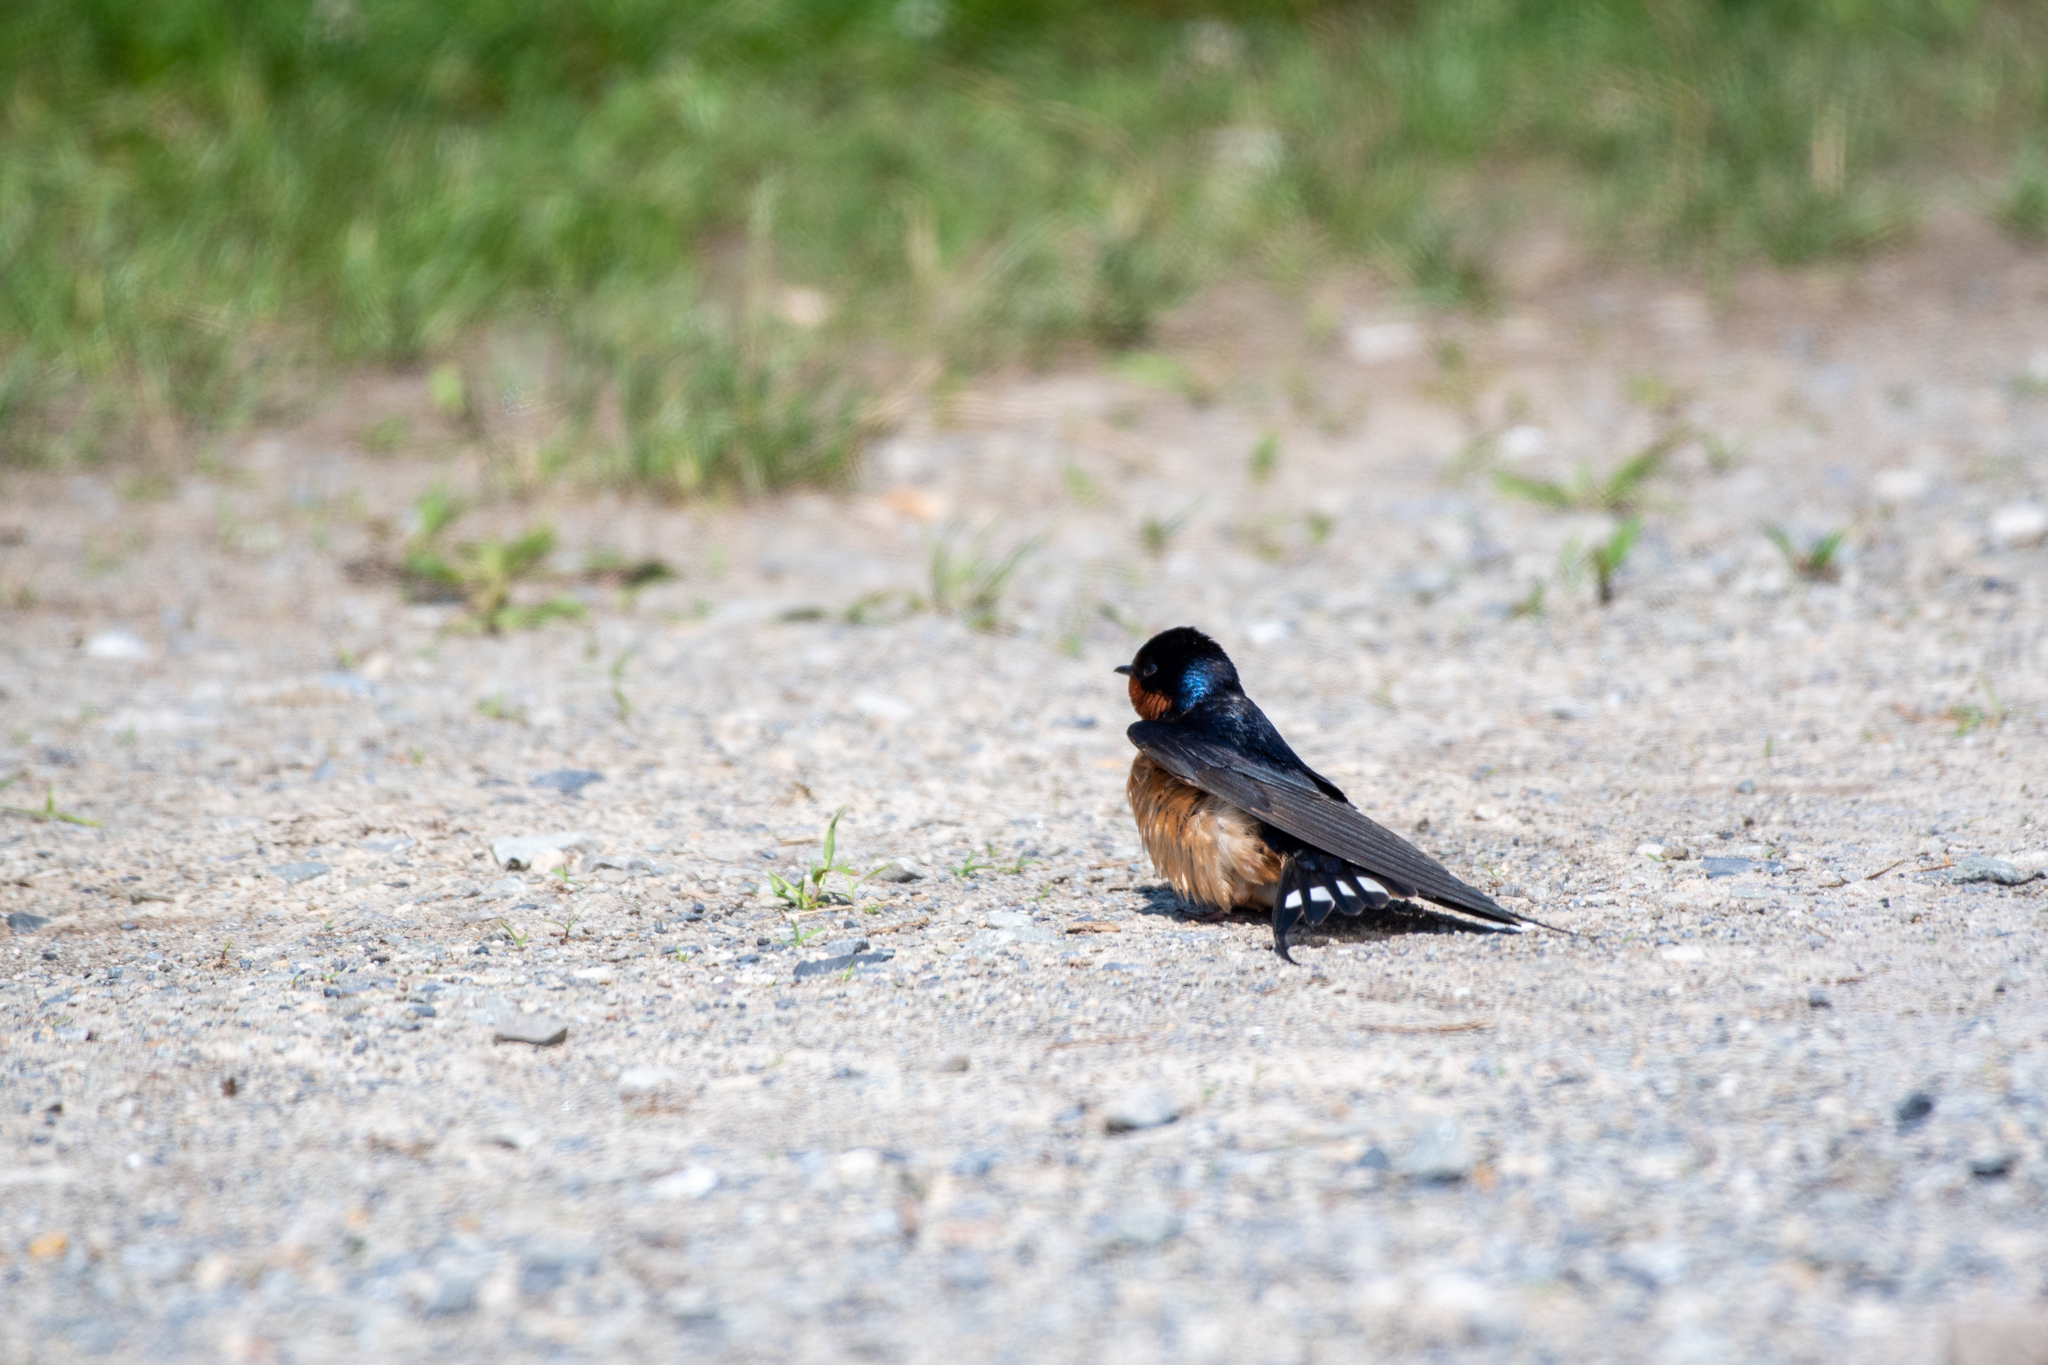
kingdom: Animalia
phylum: Chordata
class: Aves
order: Passeriformes
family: Hirundinidae
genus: Hirundo
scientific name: Hirundo rustica
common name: Barn swallow
